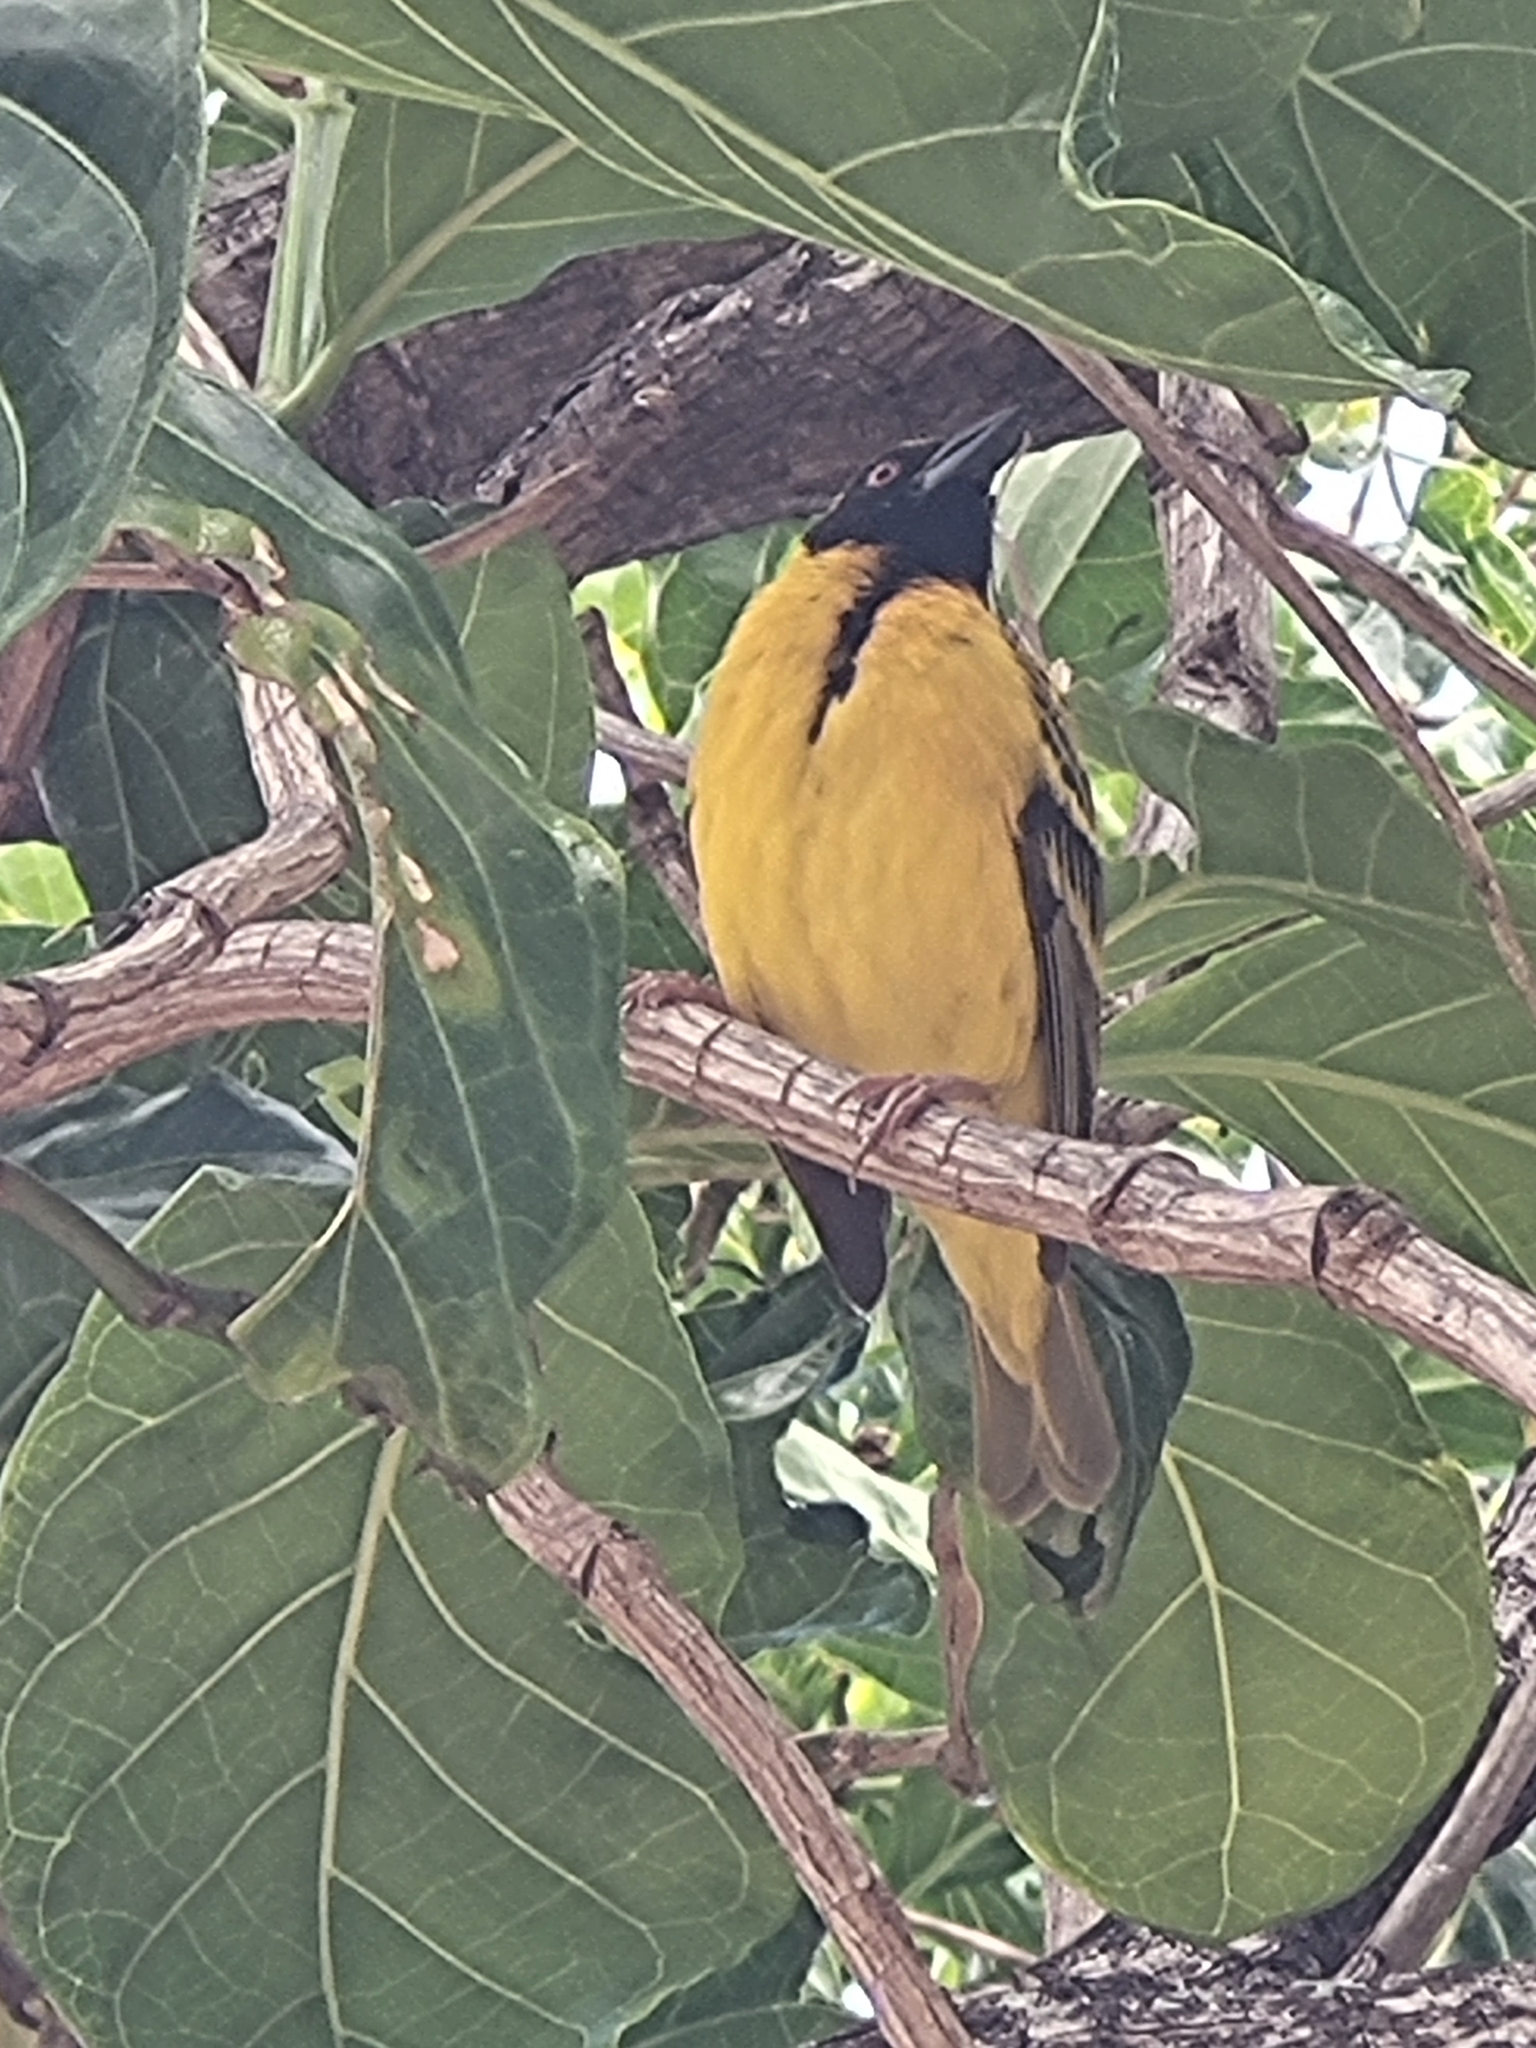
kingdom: Animalia
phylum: Chordata
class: Aves
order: Passeriformes
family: Ploceidae
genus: Ploceus
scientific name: Ploceus cucullatus
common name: Village weaver
